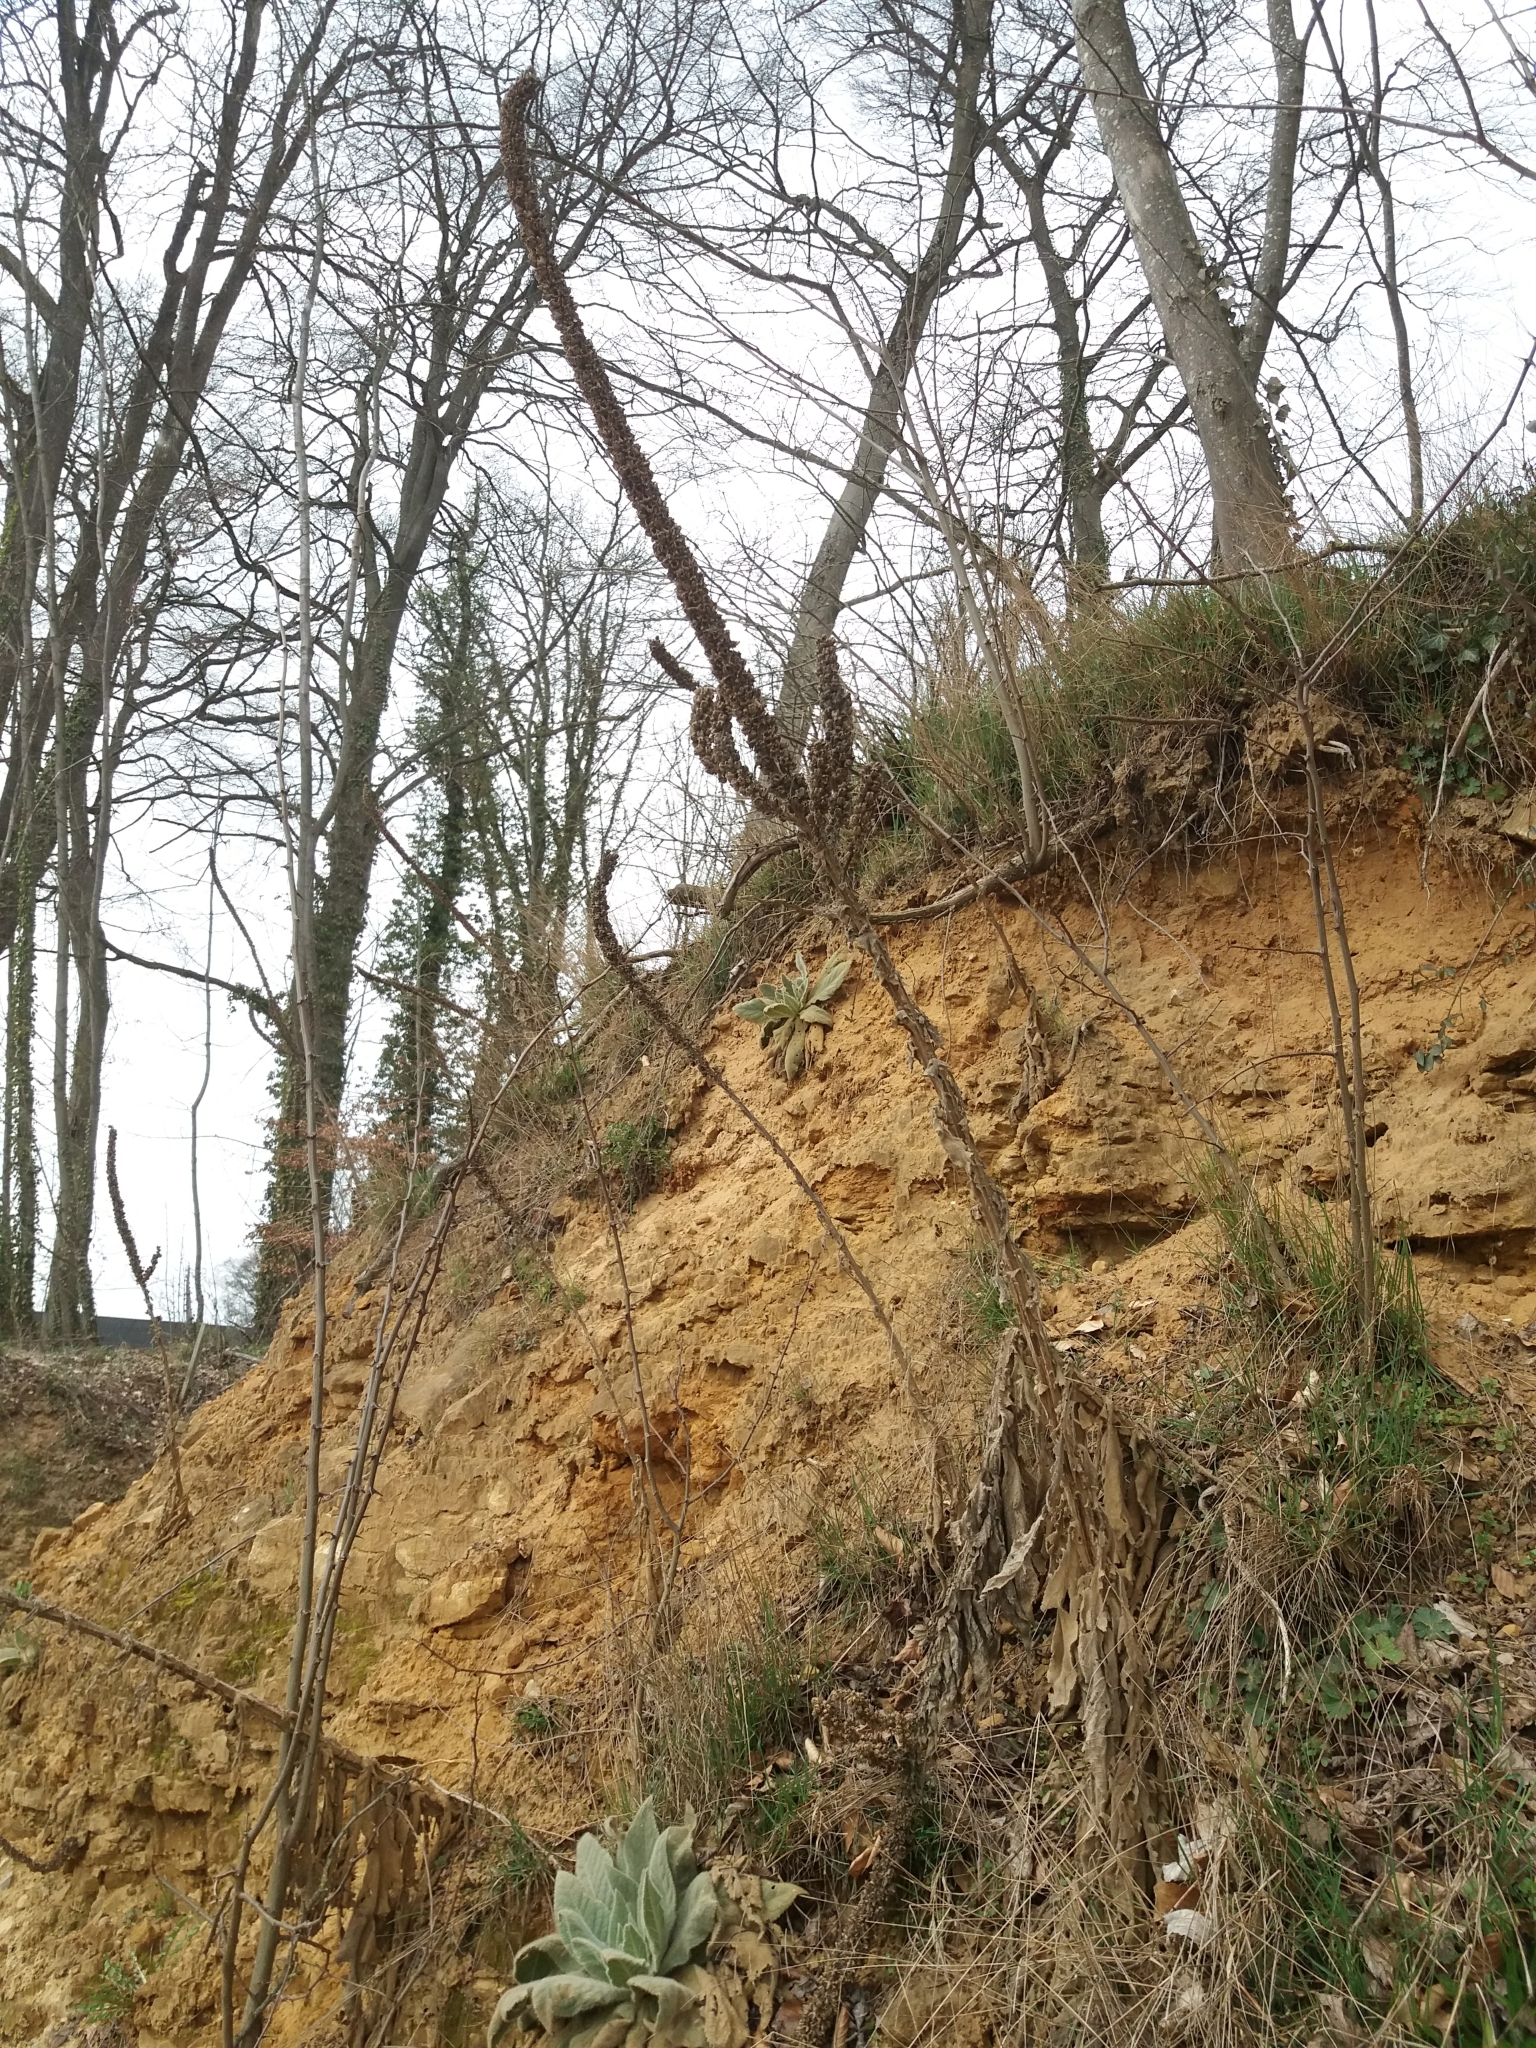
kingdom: Plantae
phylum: Tracheophyta
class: Magnoliopsida
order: Lamiales
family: Scrophulariaceae
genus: Verbascum
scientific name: Verbascum thapsus
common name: Common mullein
